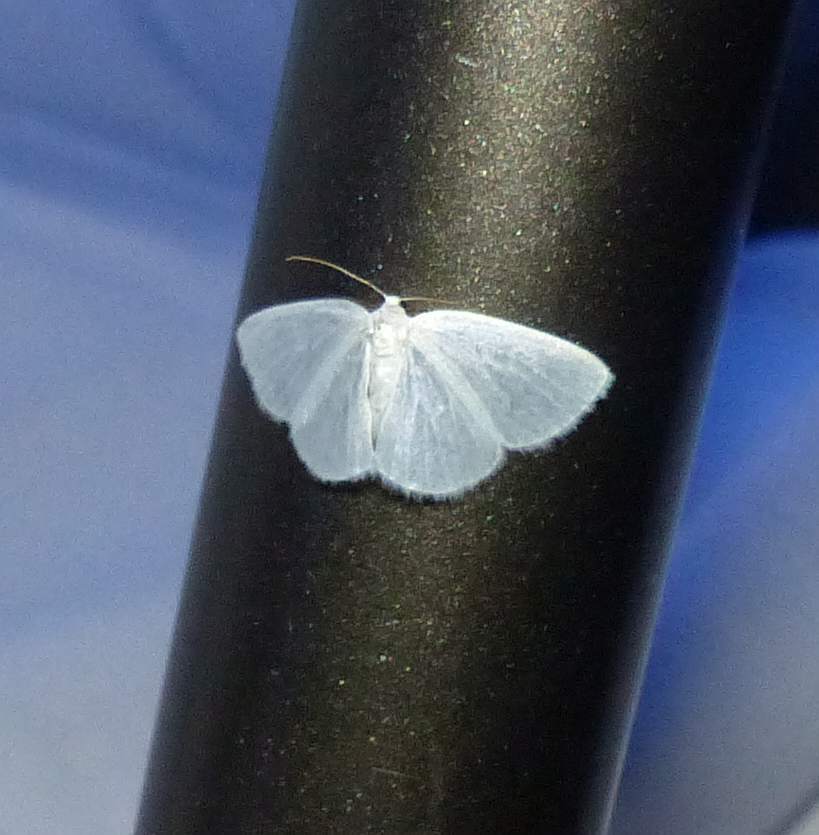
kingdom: Animalia
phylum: Arthropoda
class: Insecta
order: Lepidoptera
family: Geometridae
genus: Lomographa
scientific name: Lomographa vestaliata
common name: White spring moth
